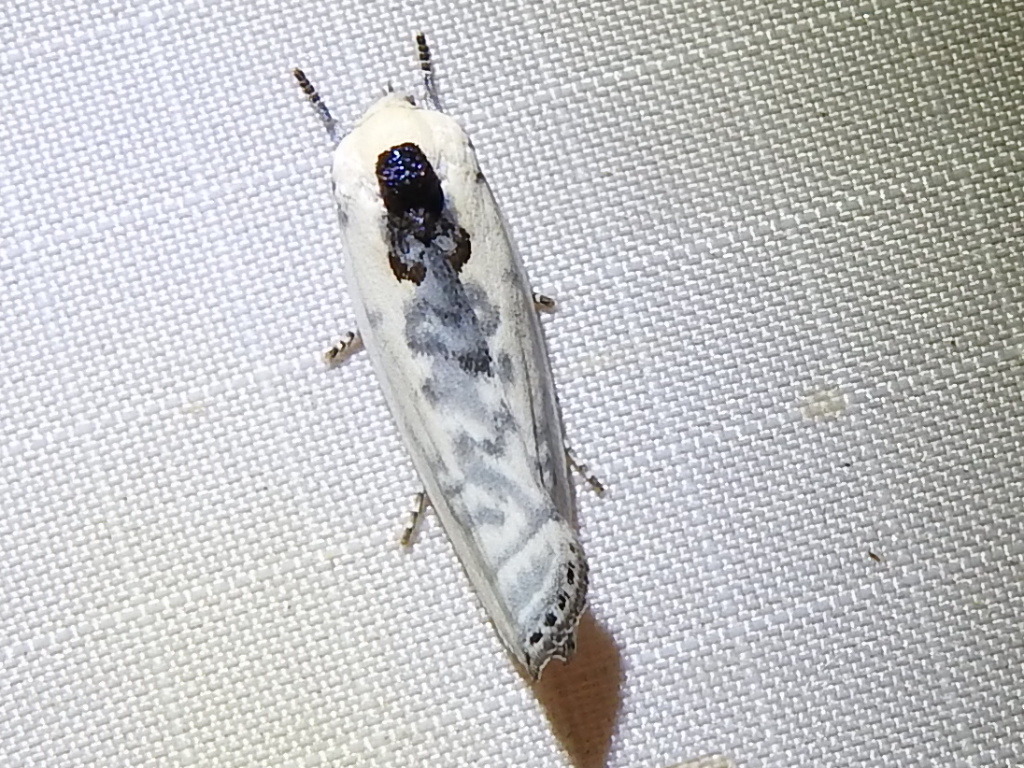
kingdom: Animalia
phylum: Arthropoda
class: Insecta
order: Lepidoptera
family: Depressariidae
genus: Antaeotricha
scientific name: Antaeotricha schlaegeri
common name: Schlaeger's fruitworm moth
